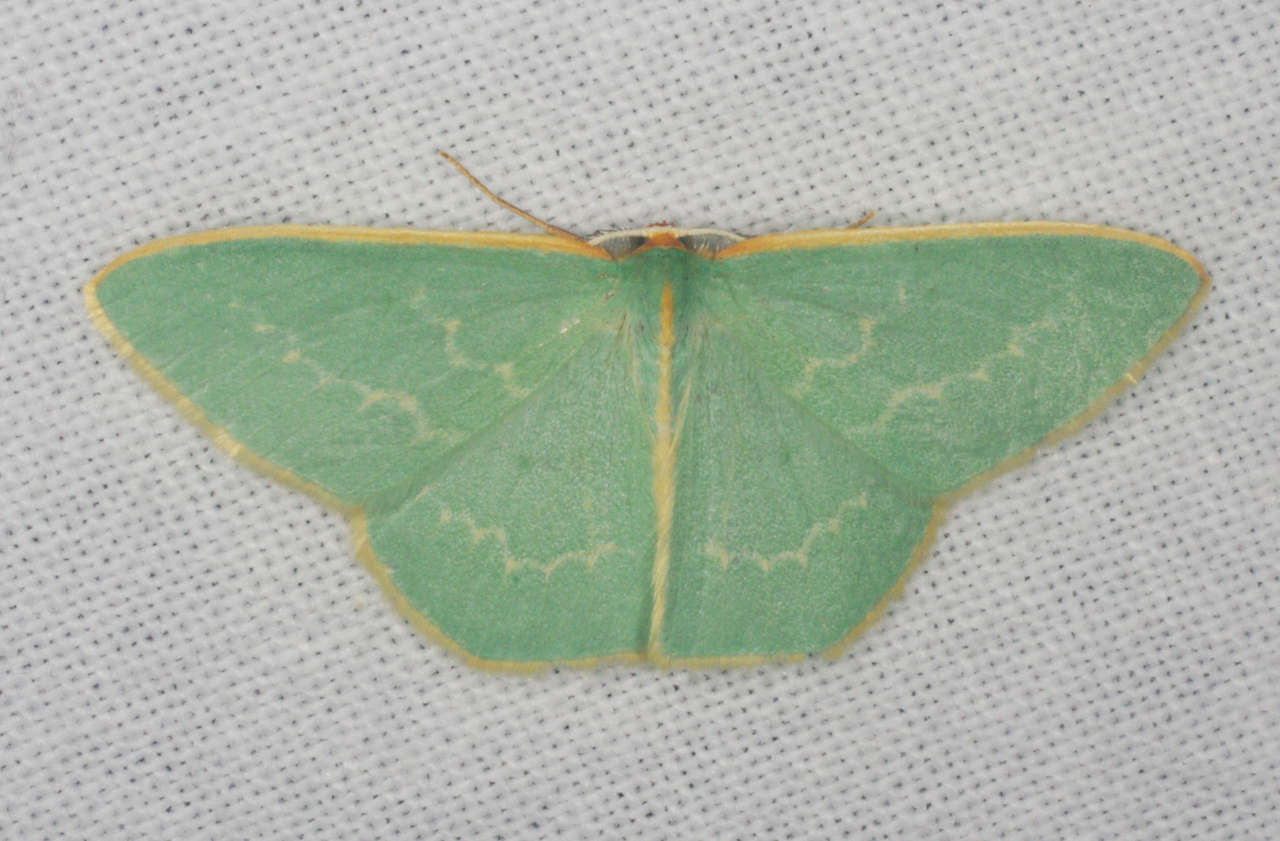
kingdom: Animalia
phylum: Arthropoda
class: Insecta
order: Lepidoptera
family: Geometridae
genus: Chlorocoma
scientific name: Chlorocoma melocrossa
